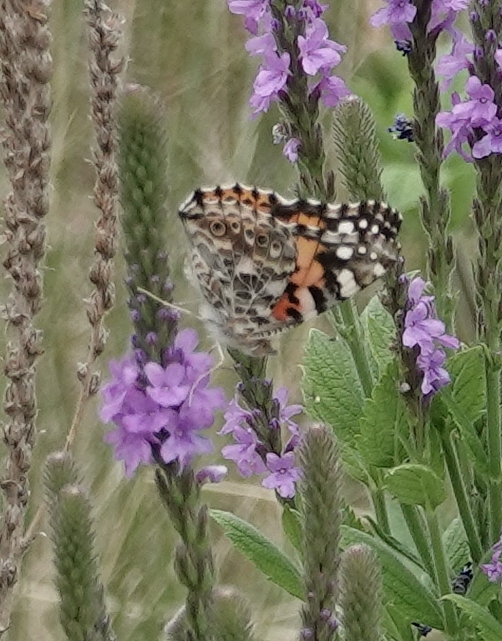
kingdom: Animalia
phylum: Arthropoda
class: Insecta
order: Lepidoptera
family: Nymphalidae
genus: Vanessa
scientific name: Vanessa cardui
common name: Painted lady
